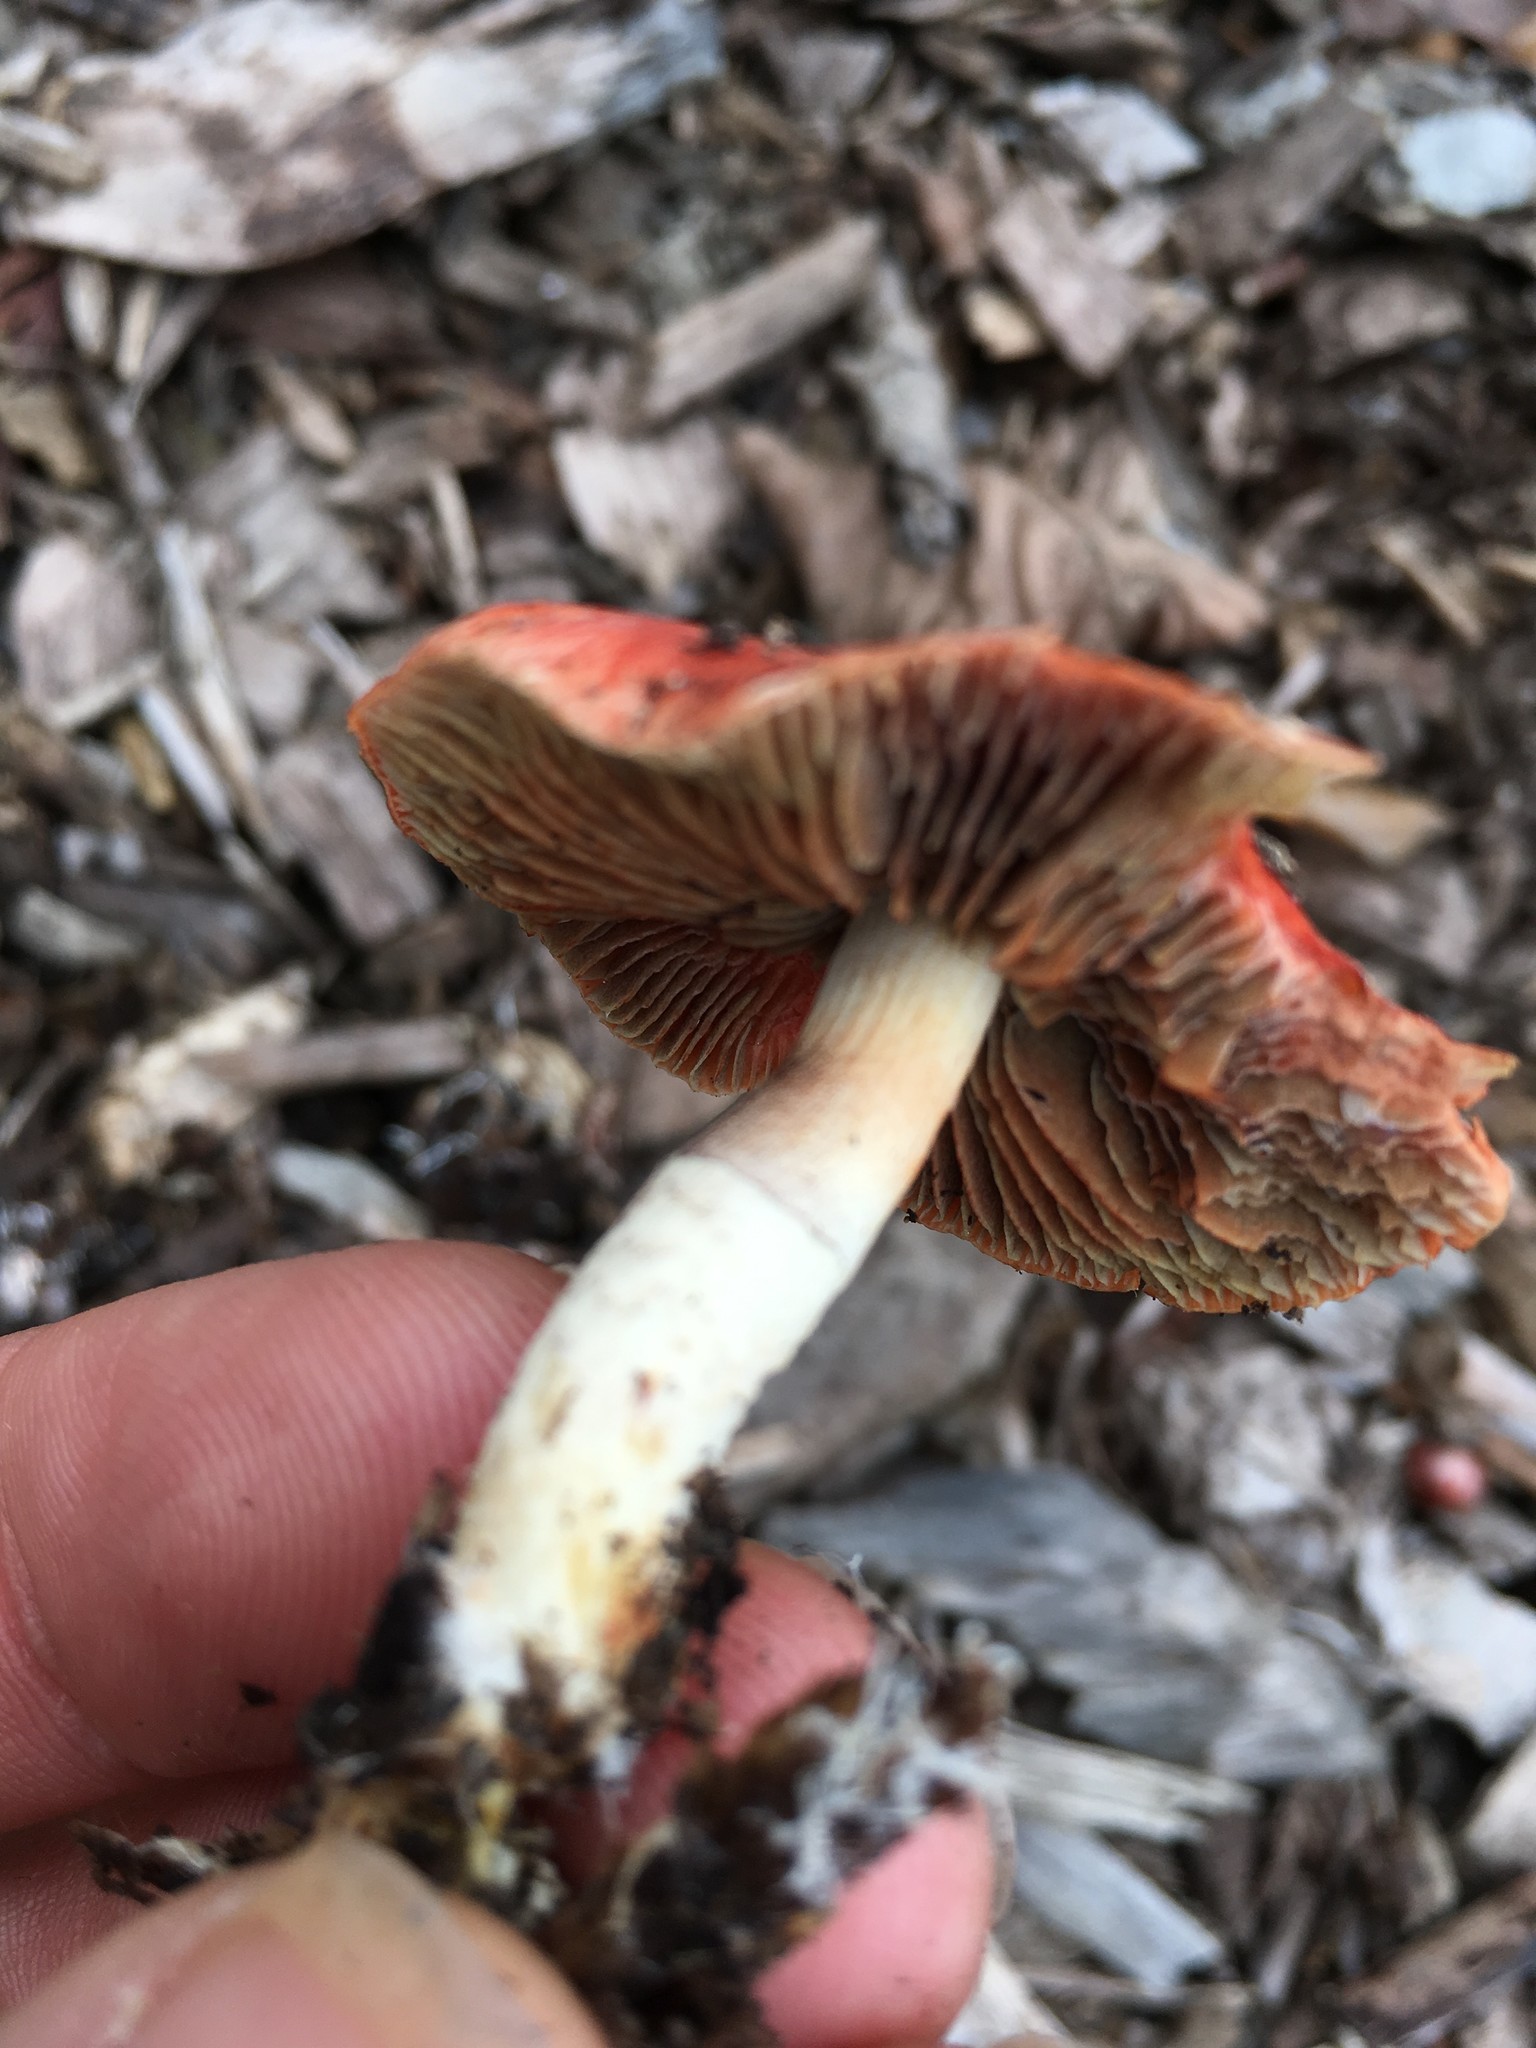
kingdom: Fungi
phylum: Basidiomycota
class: Agaricomycetes
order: Agaricales
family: Strophariaceae
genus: Leratiomyces
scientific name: Leratiomyces ceres
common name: Redlead roundhead
